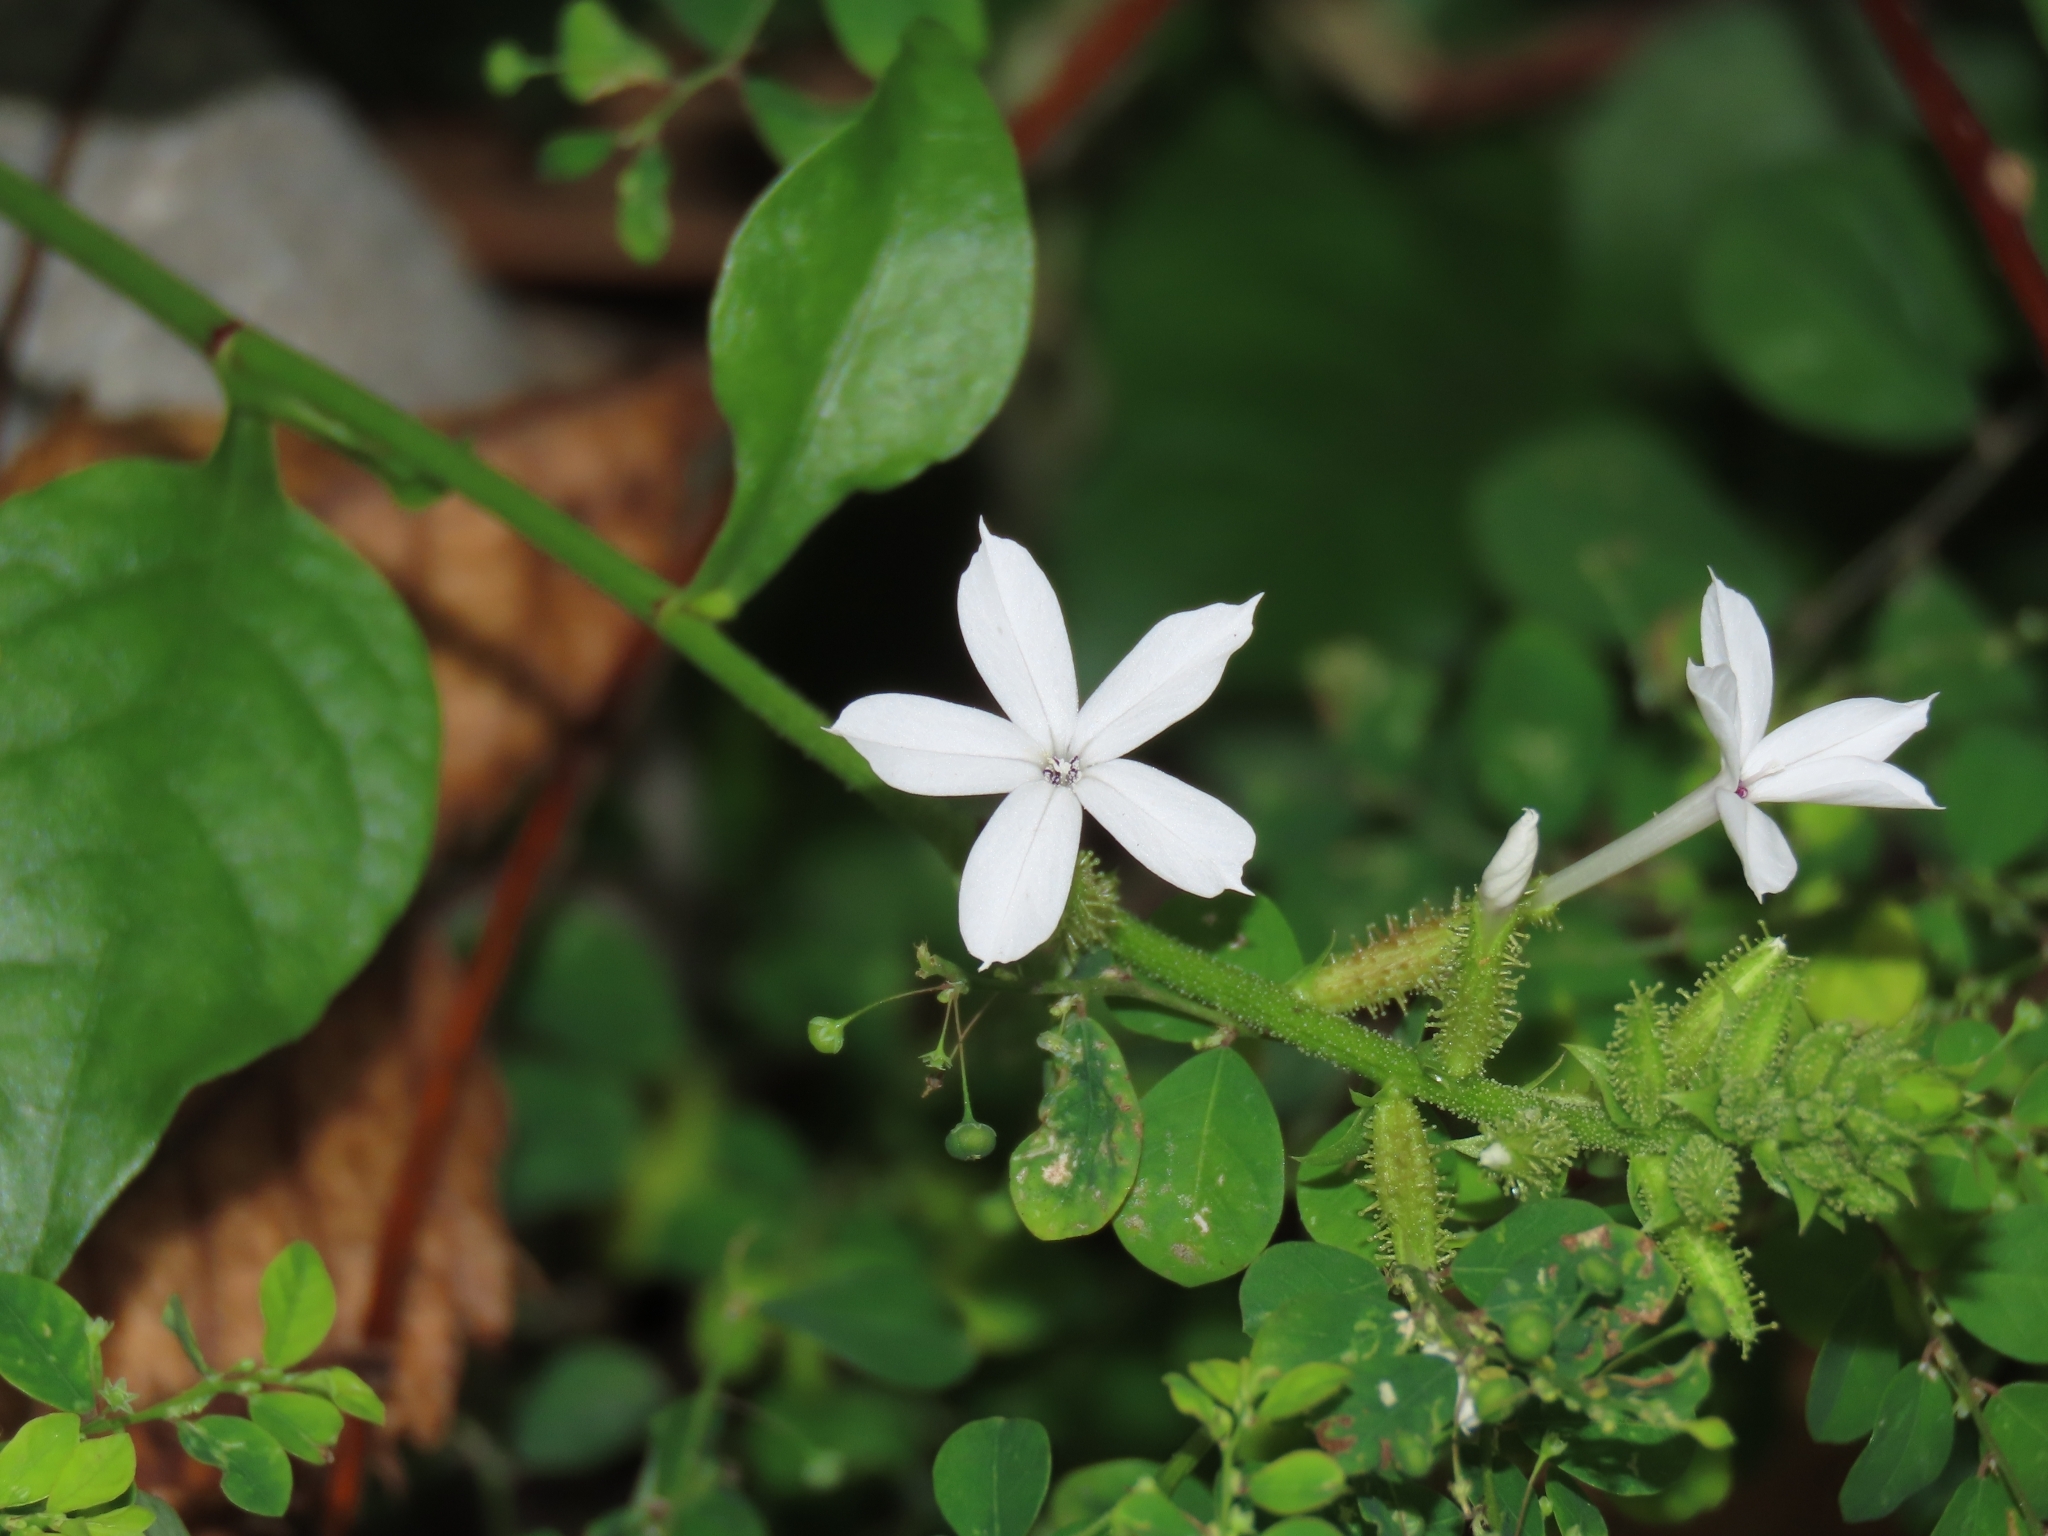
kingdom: Plantae
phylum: Tracheophyta
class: Magnoliopsida
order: Caryophyllales
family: Plumbaginaceae
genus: Plumbago
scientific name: Plumbago zeylanica
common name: Doctorbush
